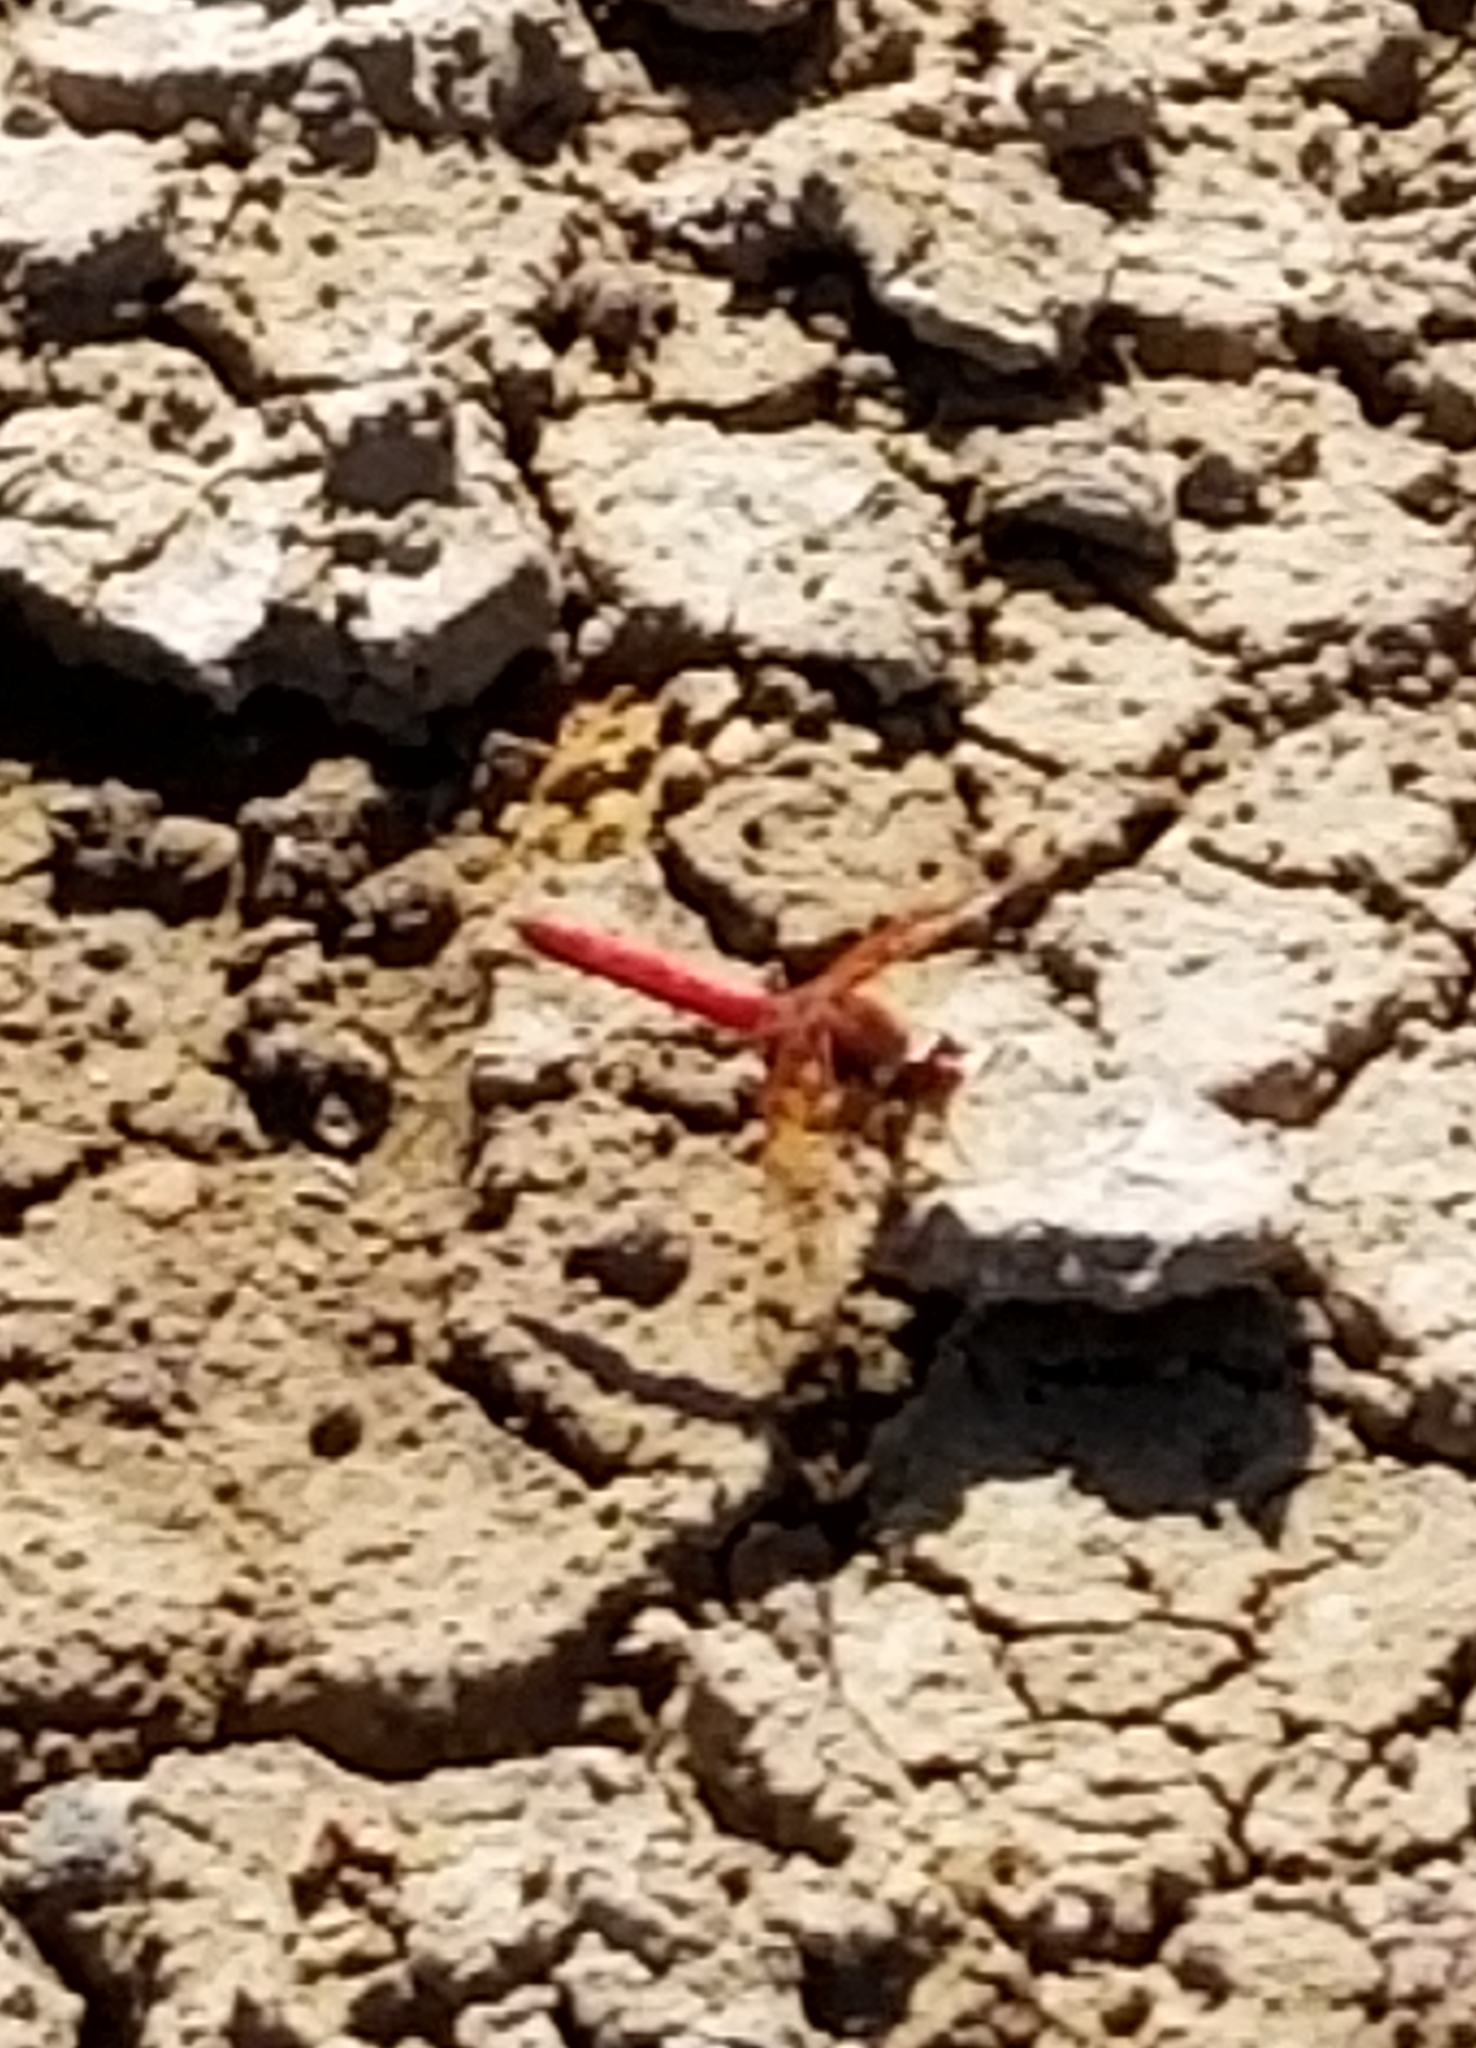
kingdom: Animalia
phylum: Arthropoda
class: Insecta
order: Odonata
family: Libellulidae
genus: Sympetrum
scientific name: Sympetrum illotum
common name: Cardinal meadowhawk
